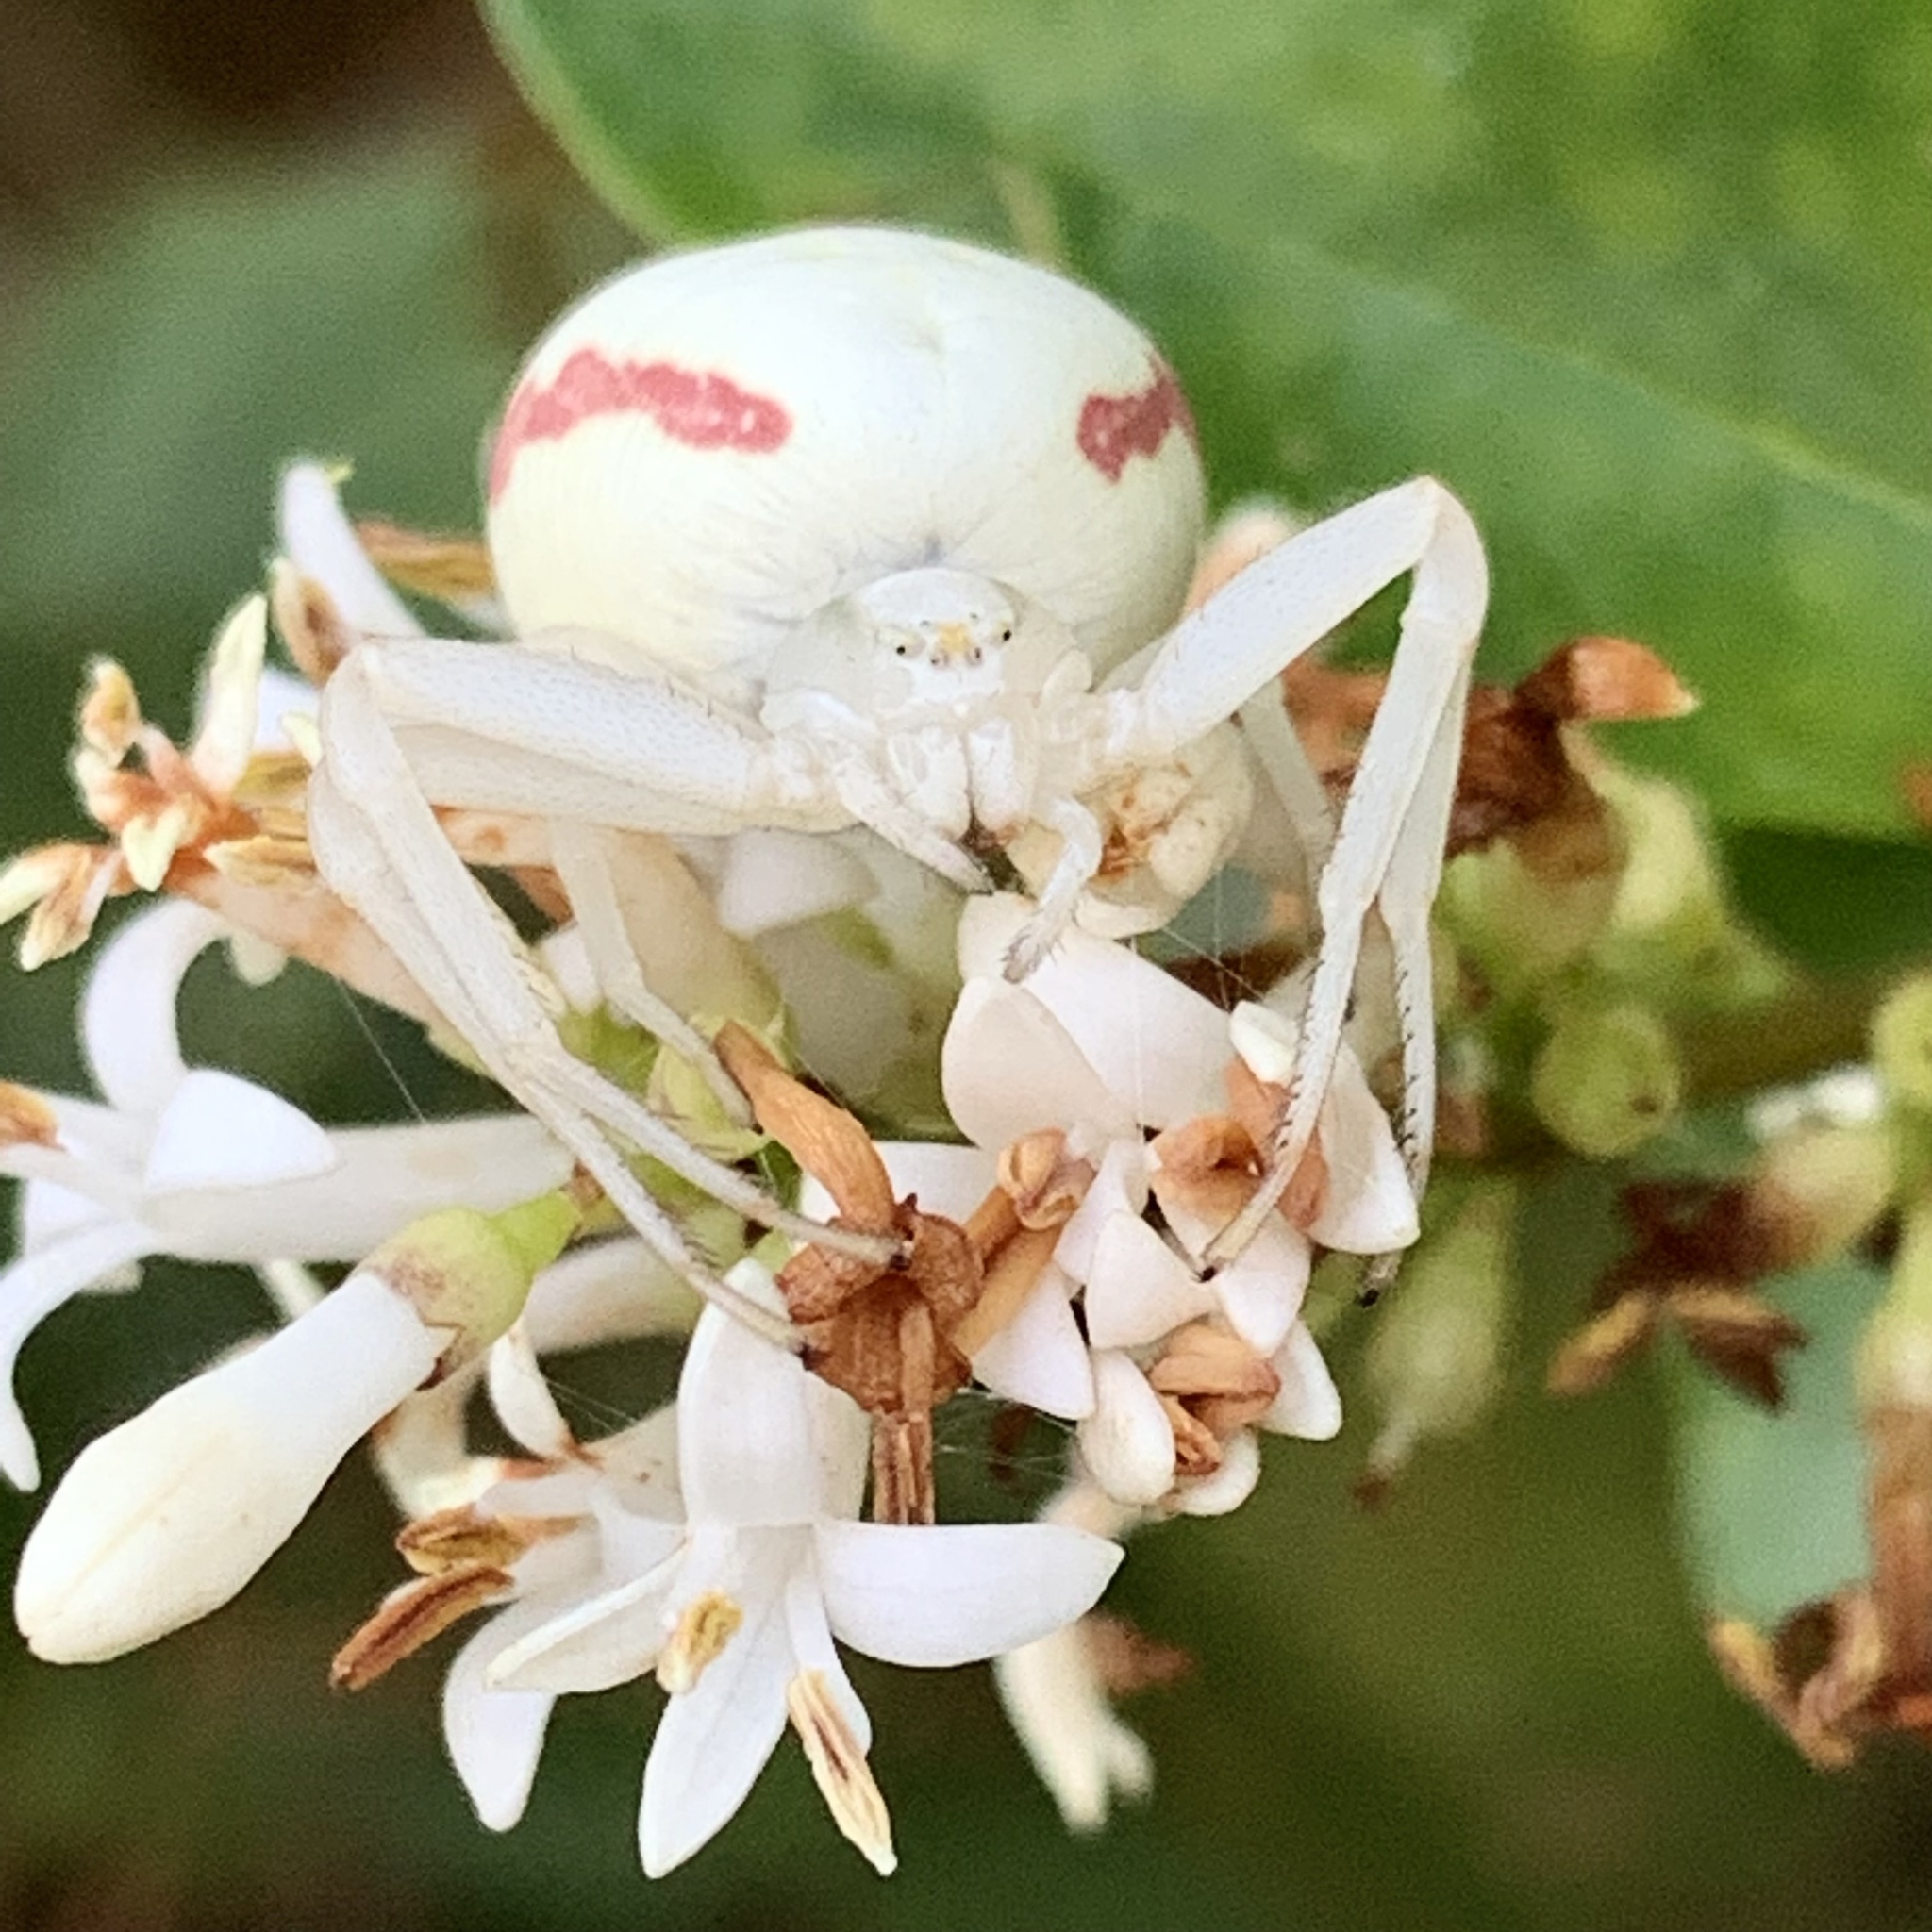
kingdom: Animalia
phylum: Arthropoda
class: Arachnida
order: Araneae
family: Thomisidae
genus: Misumena
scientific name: Misumena vatia
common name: Goldenrod crab spider
